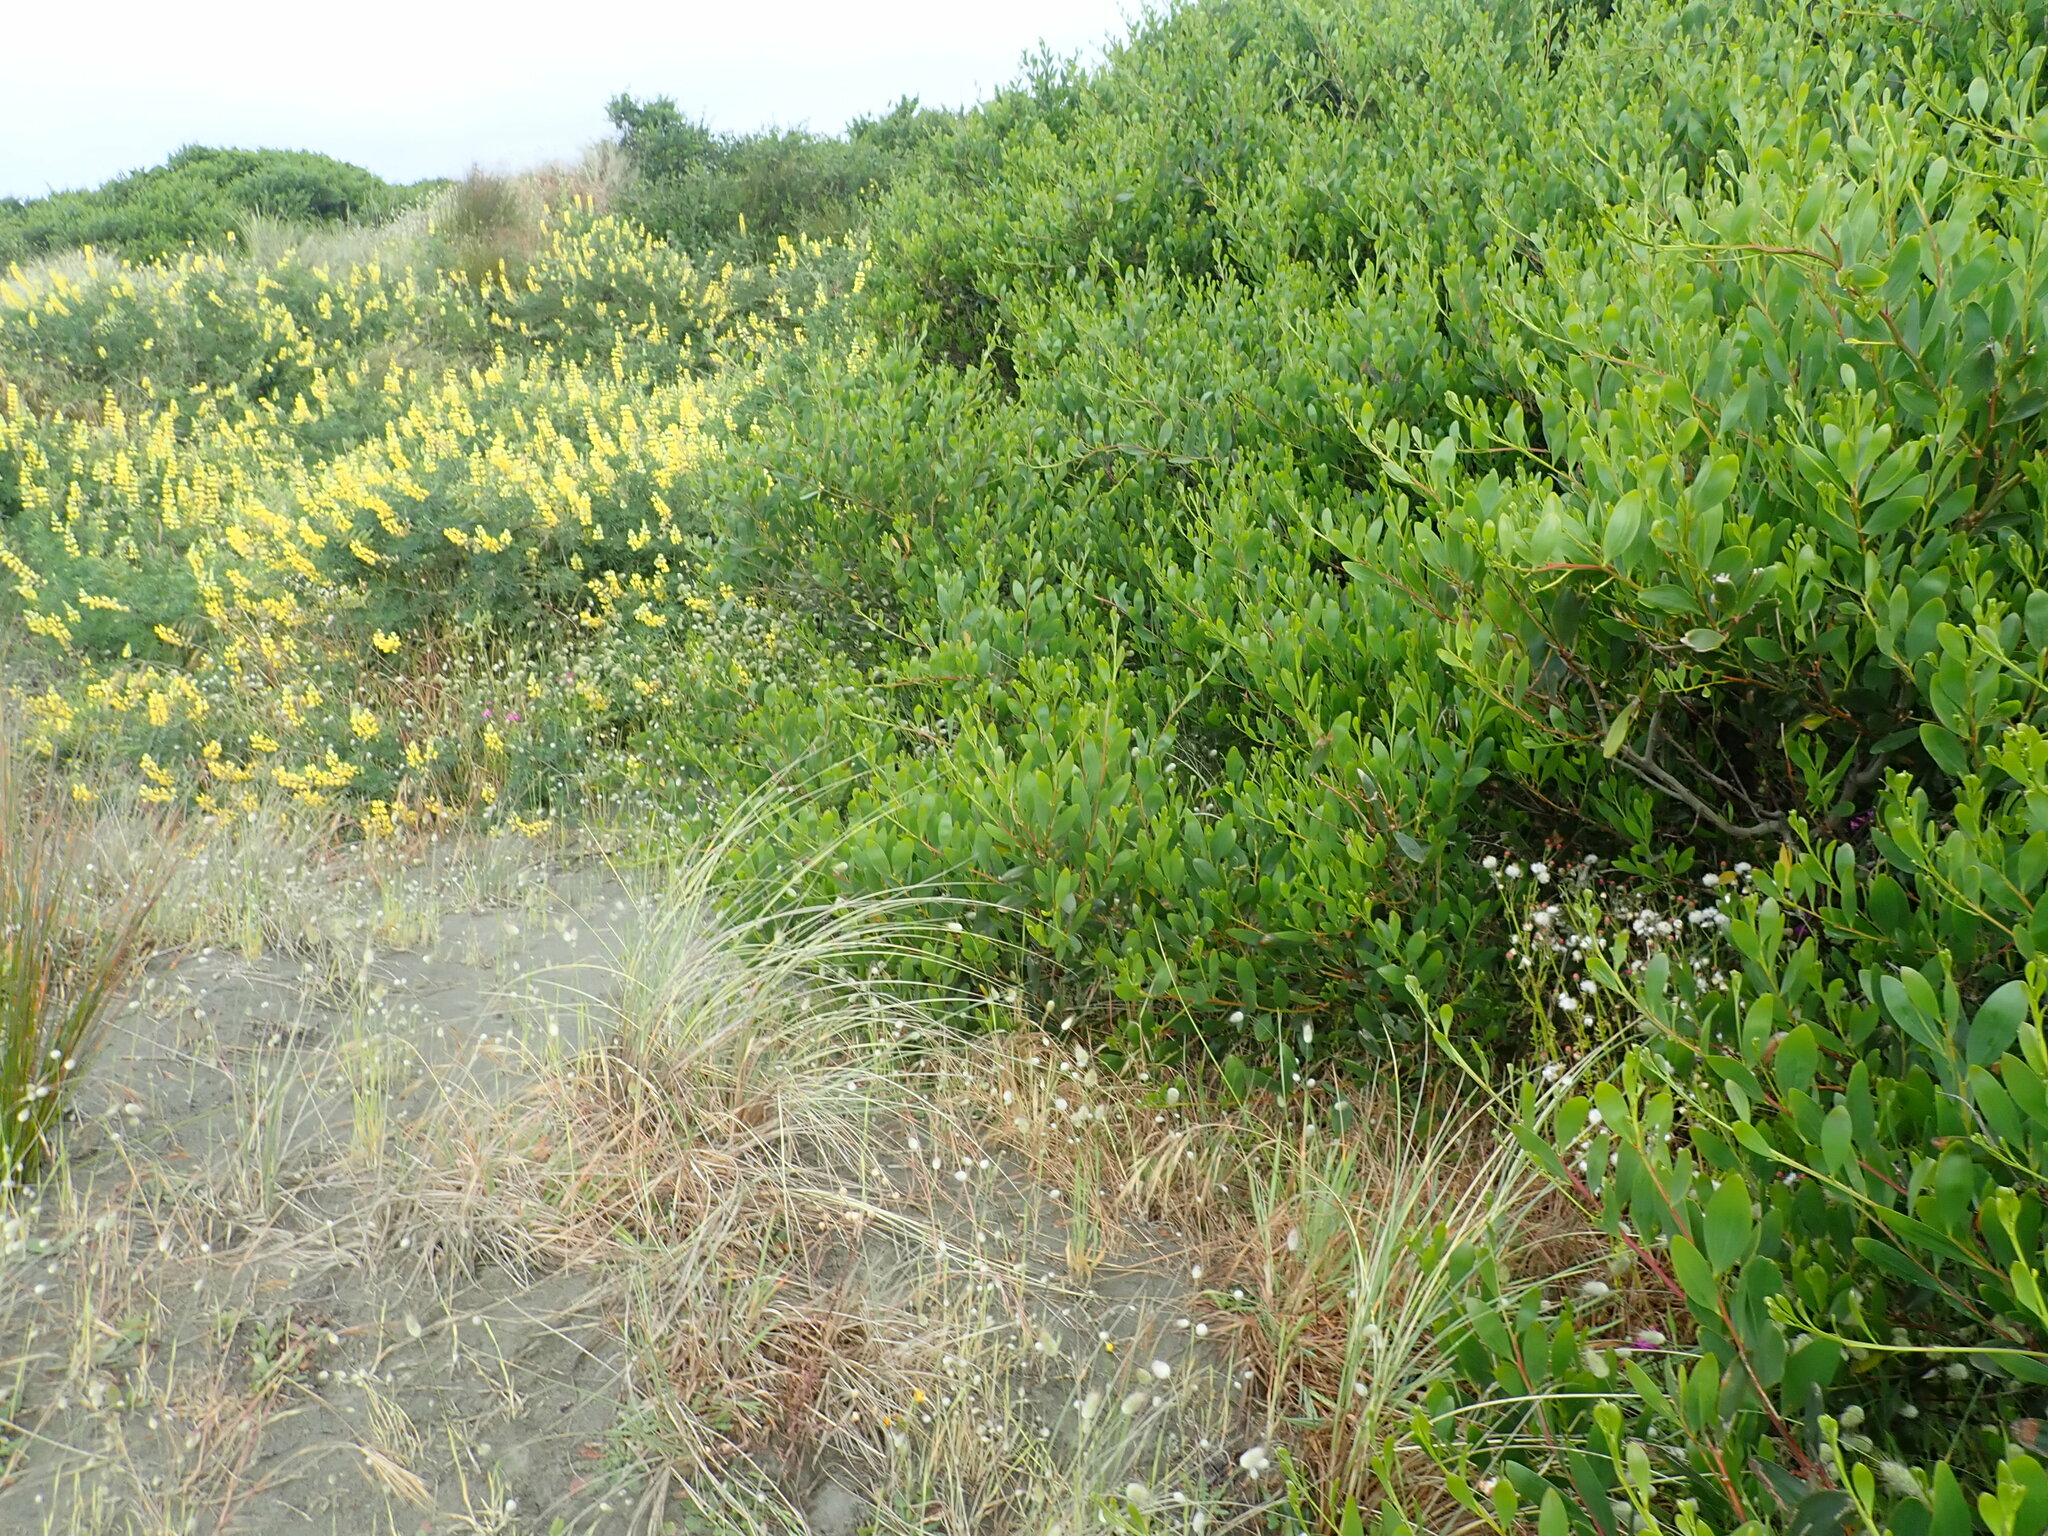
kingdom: Plantae
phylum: Tracheophyta
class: Magnoliopsida
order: Asterales
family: Asteraceae
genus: Senecio
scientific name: Senecio elegans
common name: Purple groundsel
